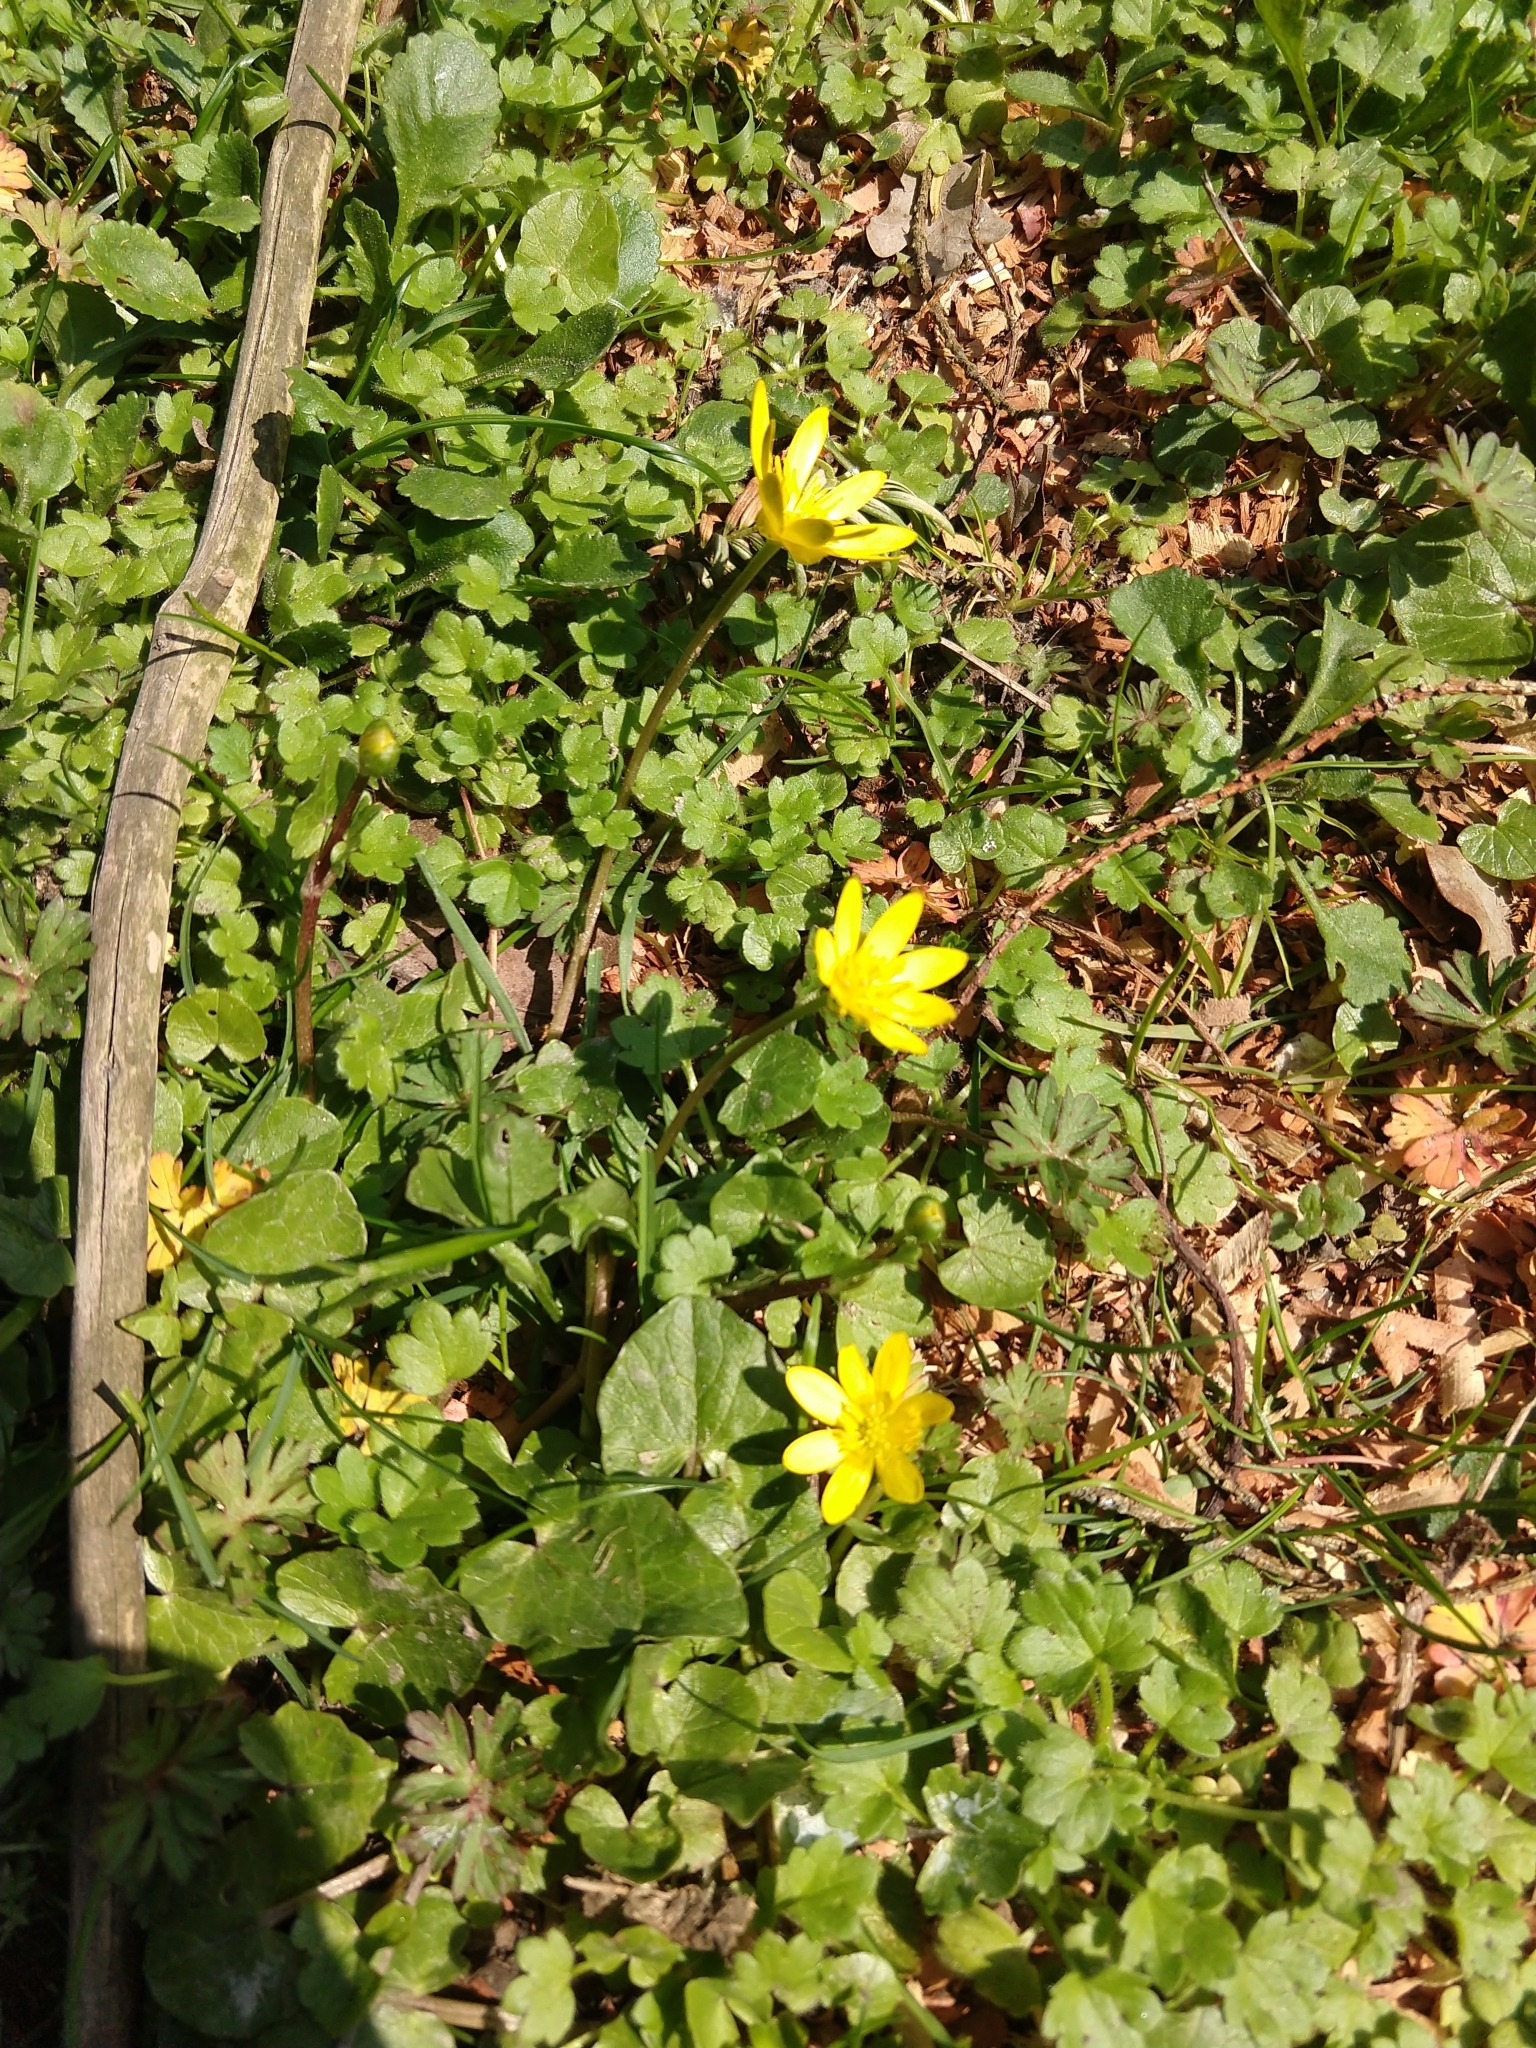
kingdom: Plantae
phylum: Tracheophyta
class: Magnoliopsida
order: Ranunculales
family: Ranunculaceae
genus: Ficaria
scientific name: Ficaria verna
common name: Lesser celandine
